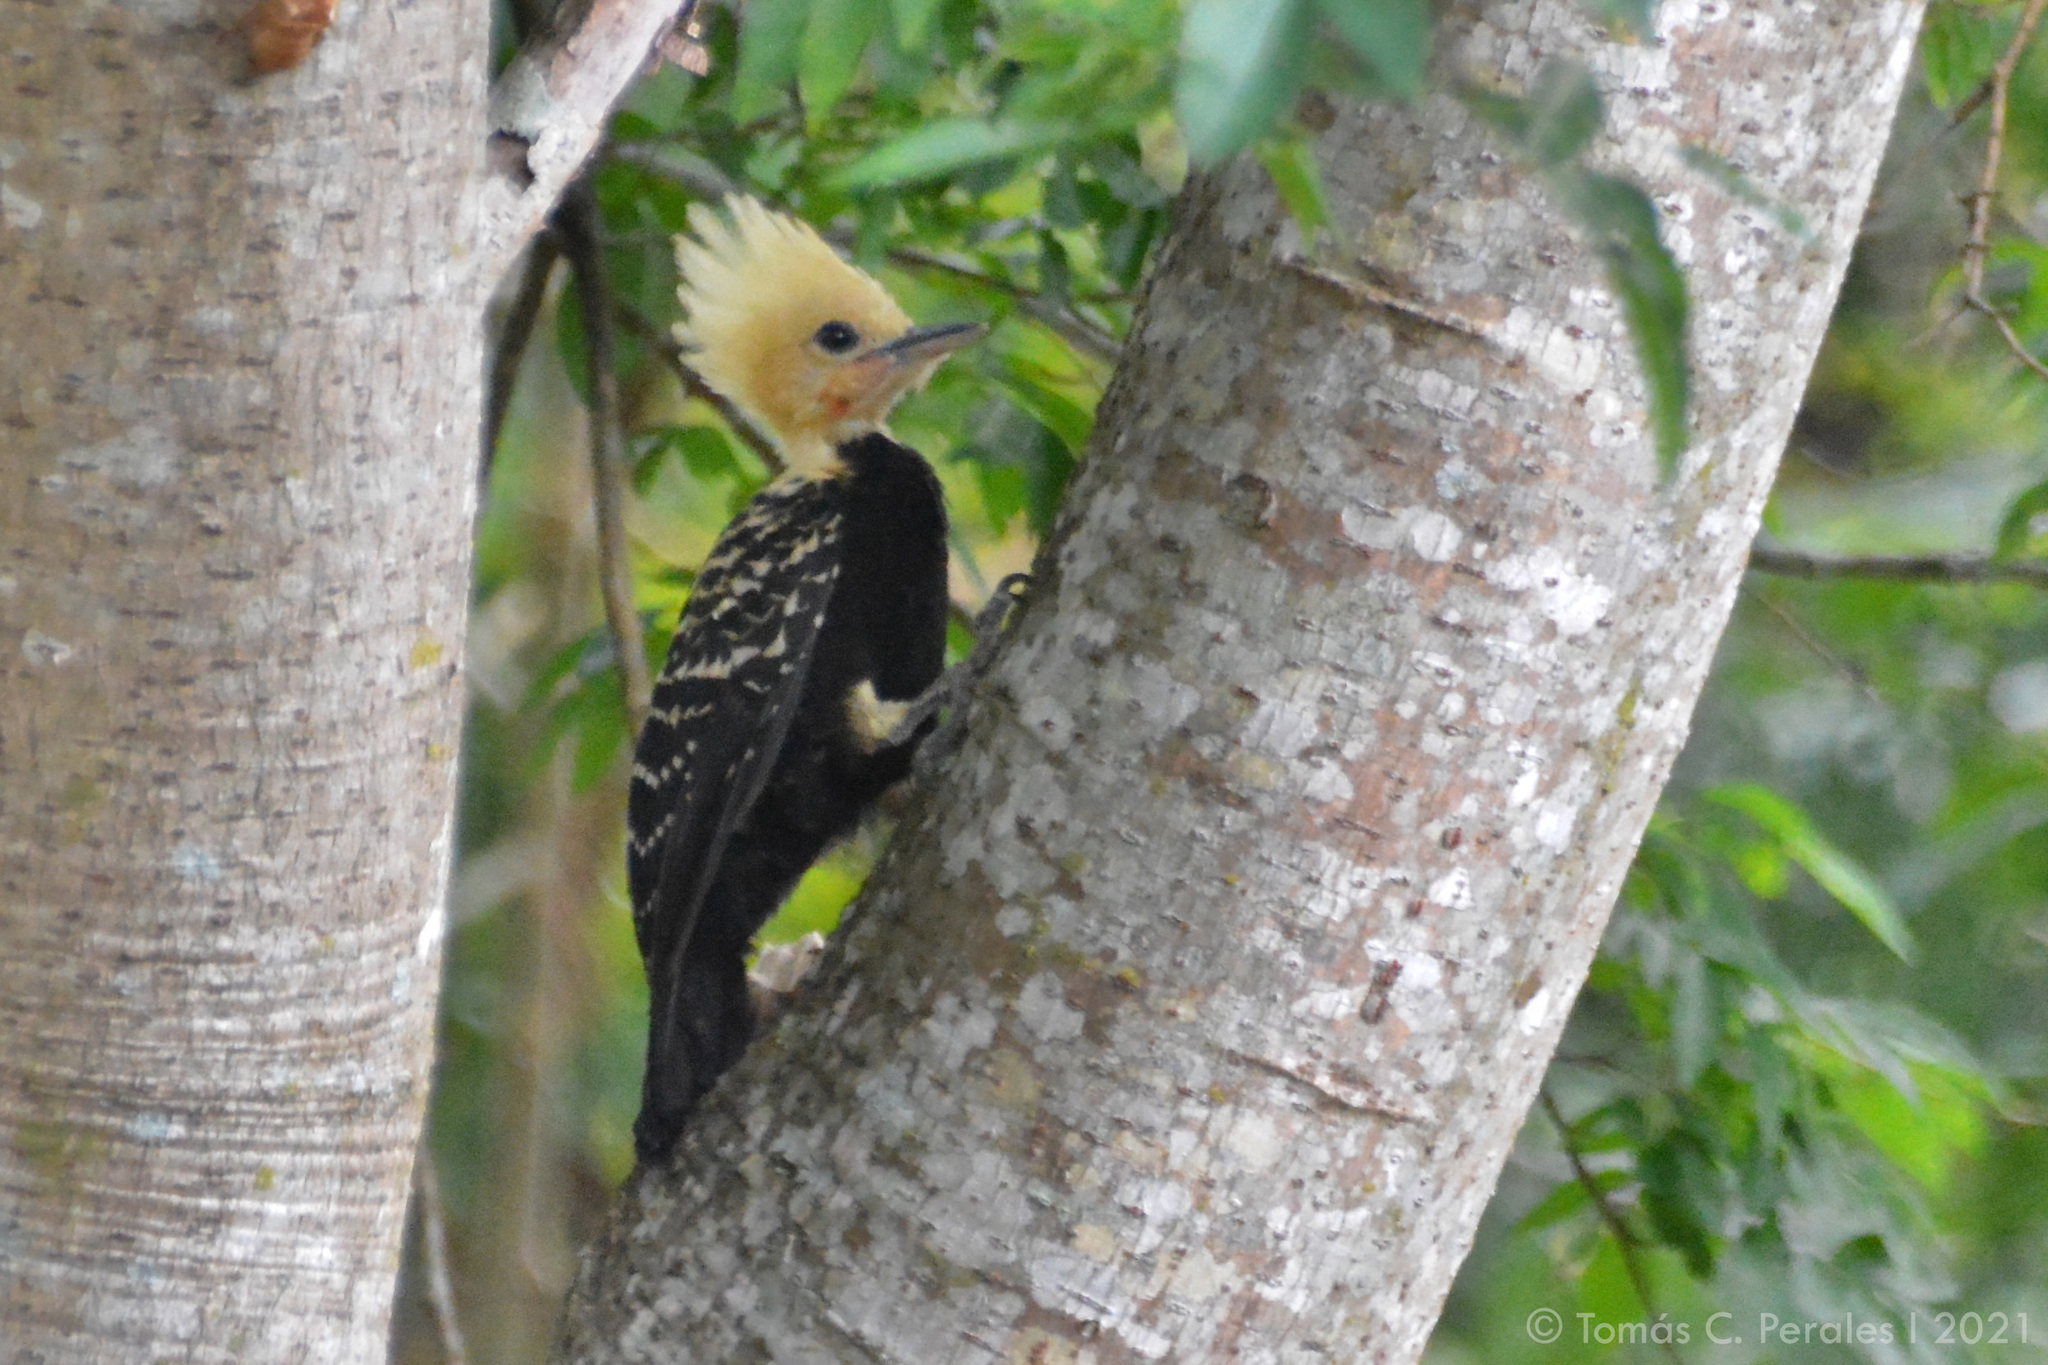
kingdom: Animalia
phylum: Chordata
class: Aves
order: Piciformes
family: Picidae
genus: Celeus
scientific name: Celeus flavescens
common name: Blond-crested woodpecker
